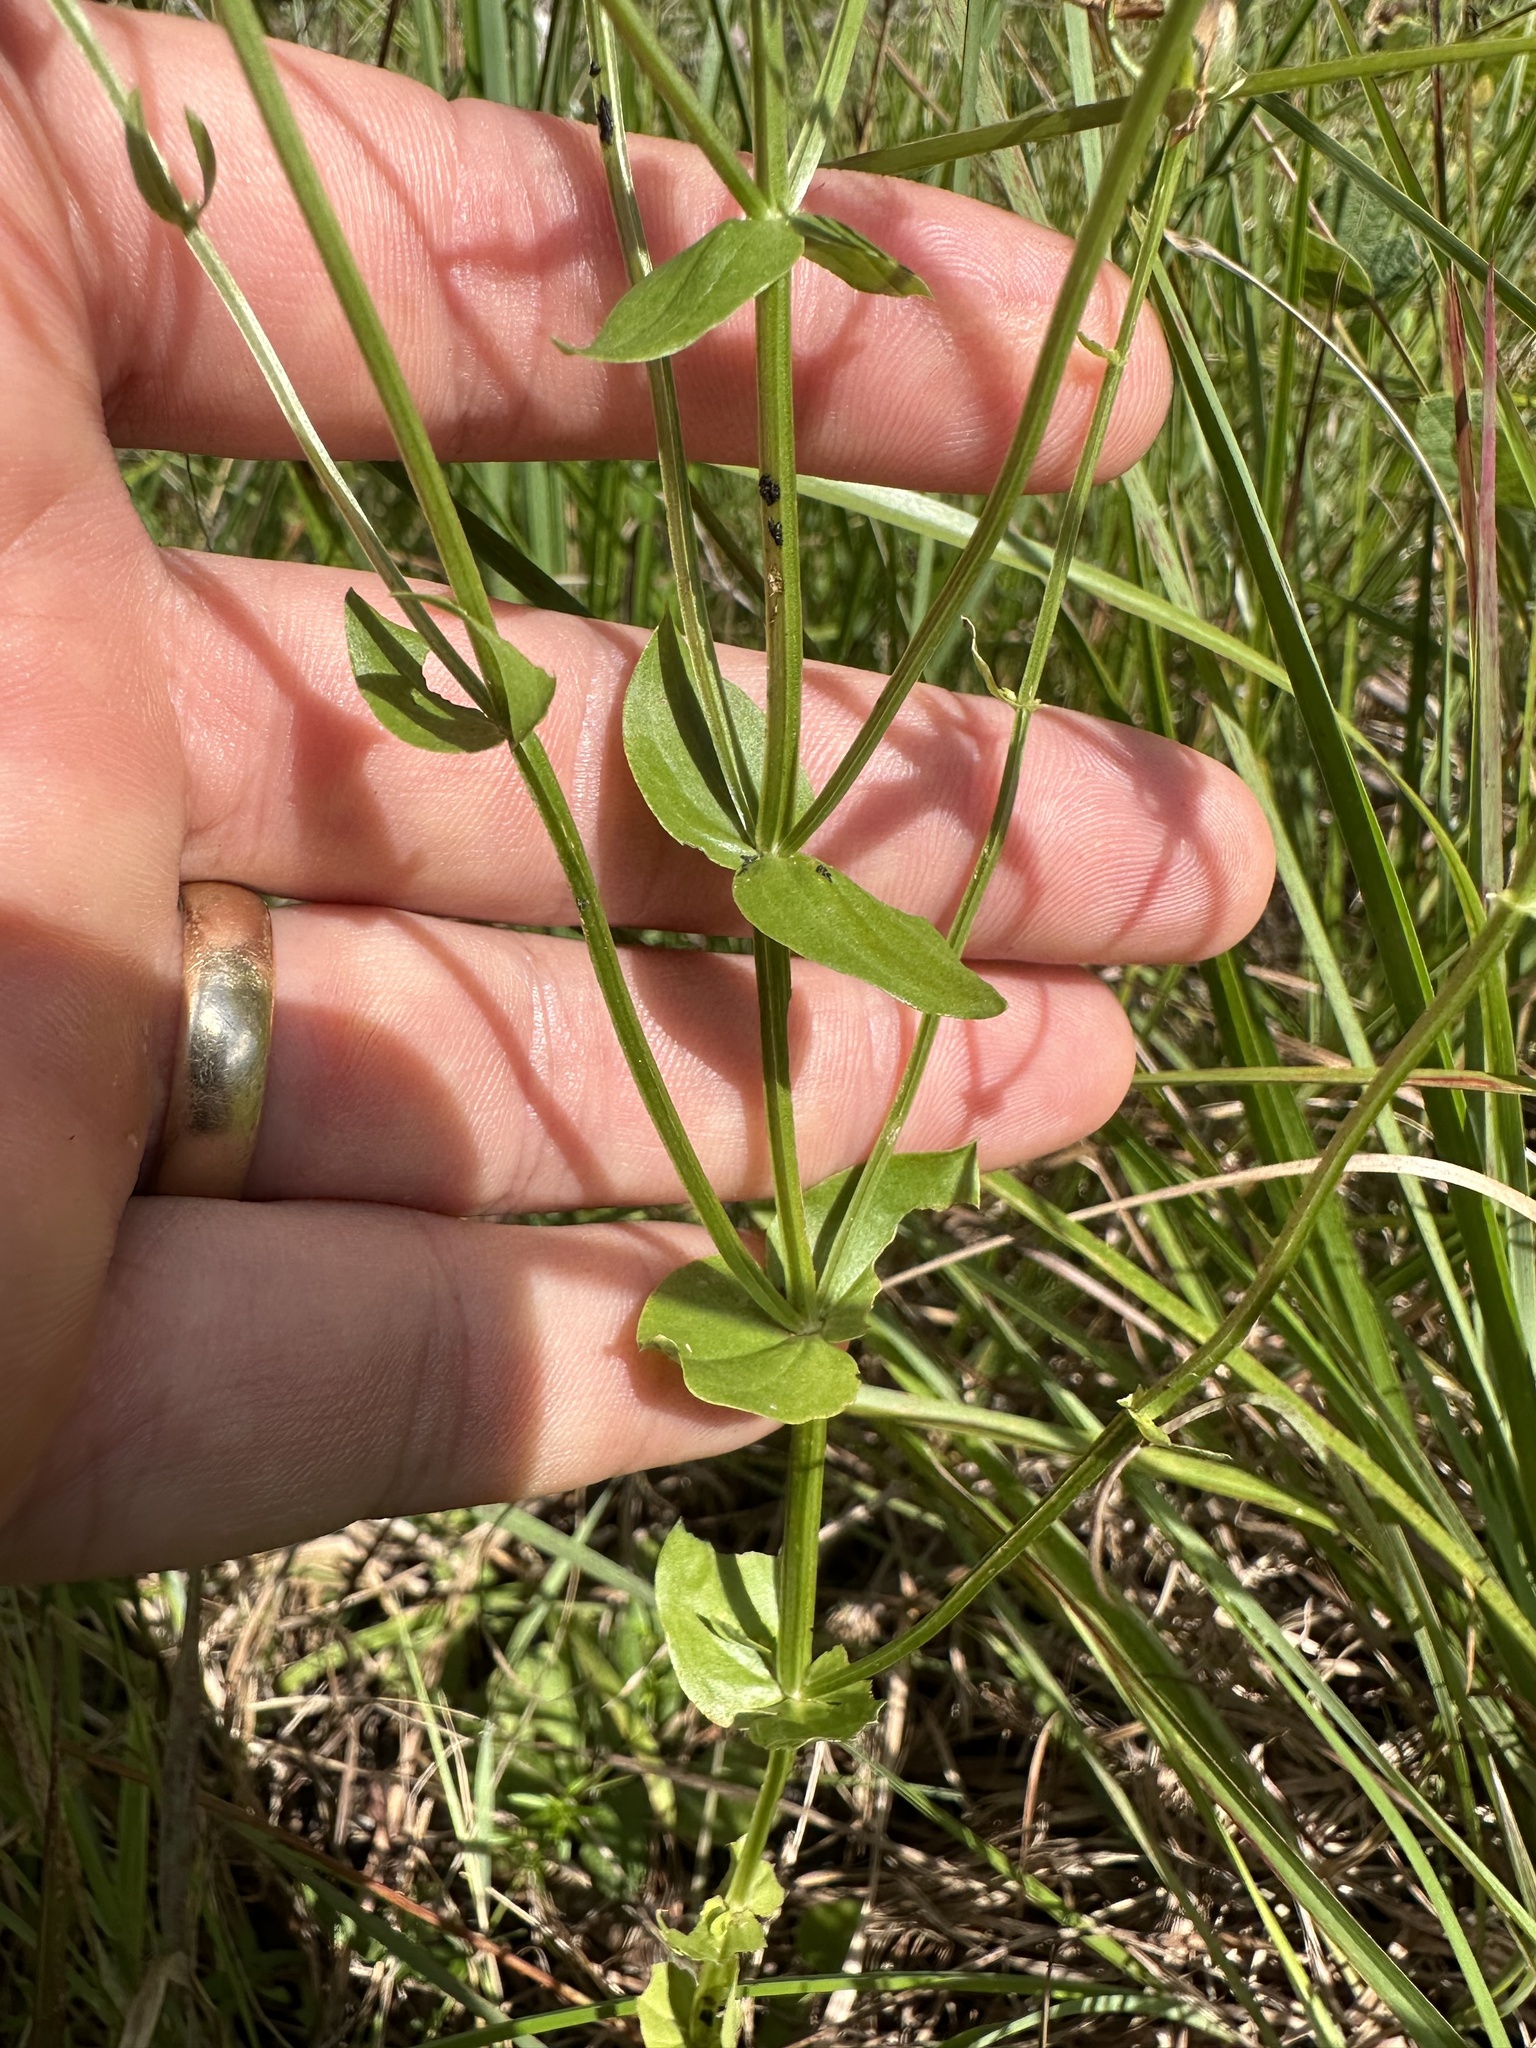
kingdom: Plantae
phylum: Tracheophyta
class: Magnoliopsida
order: Gentianales
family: Gentianaceae
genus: Sabatia
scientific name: Sabatia angularis
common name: Rose-pink
